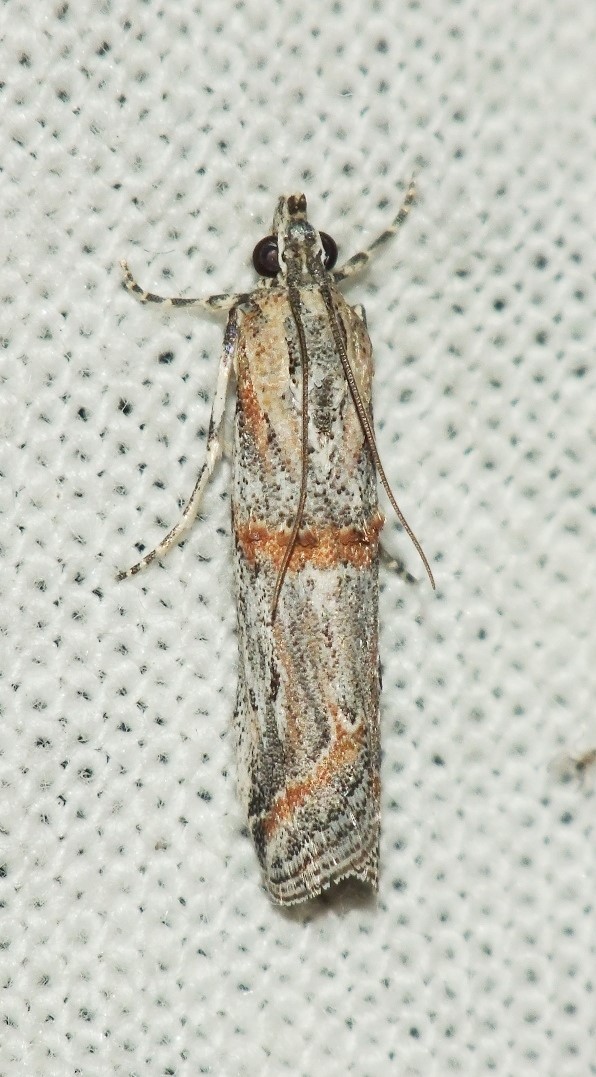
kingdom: Animalia
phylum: Arthropoda
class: Insecta
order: Lepidoptera
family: Pyralidae
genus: Psorosa
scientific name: Psorosa strictella
